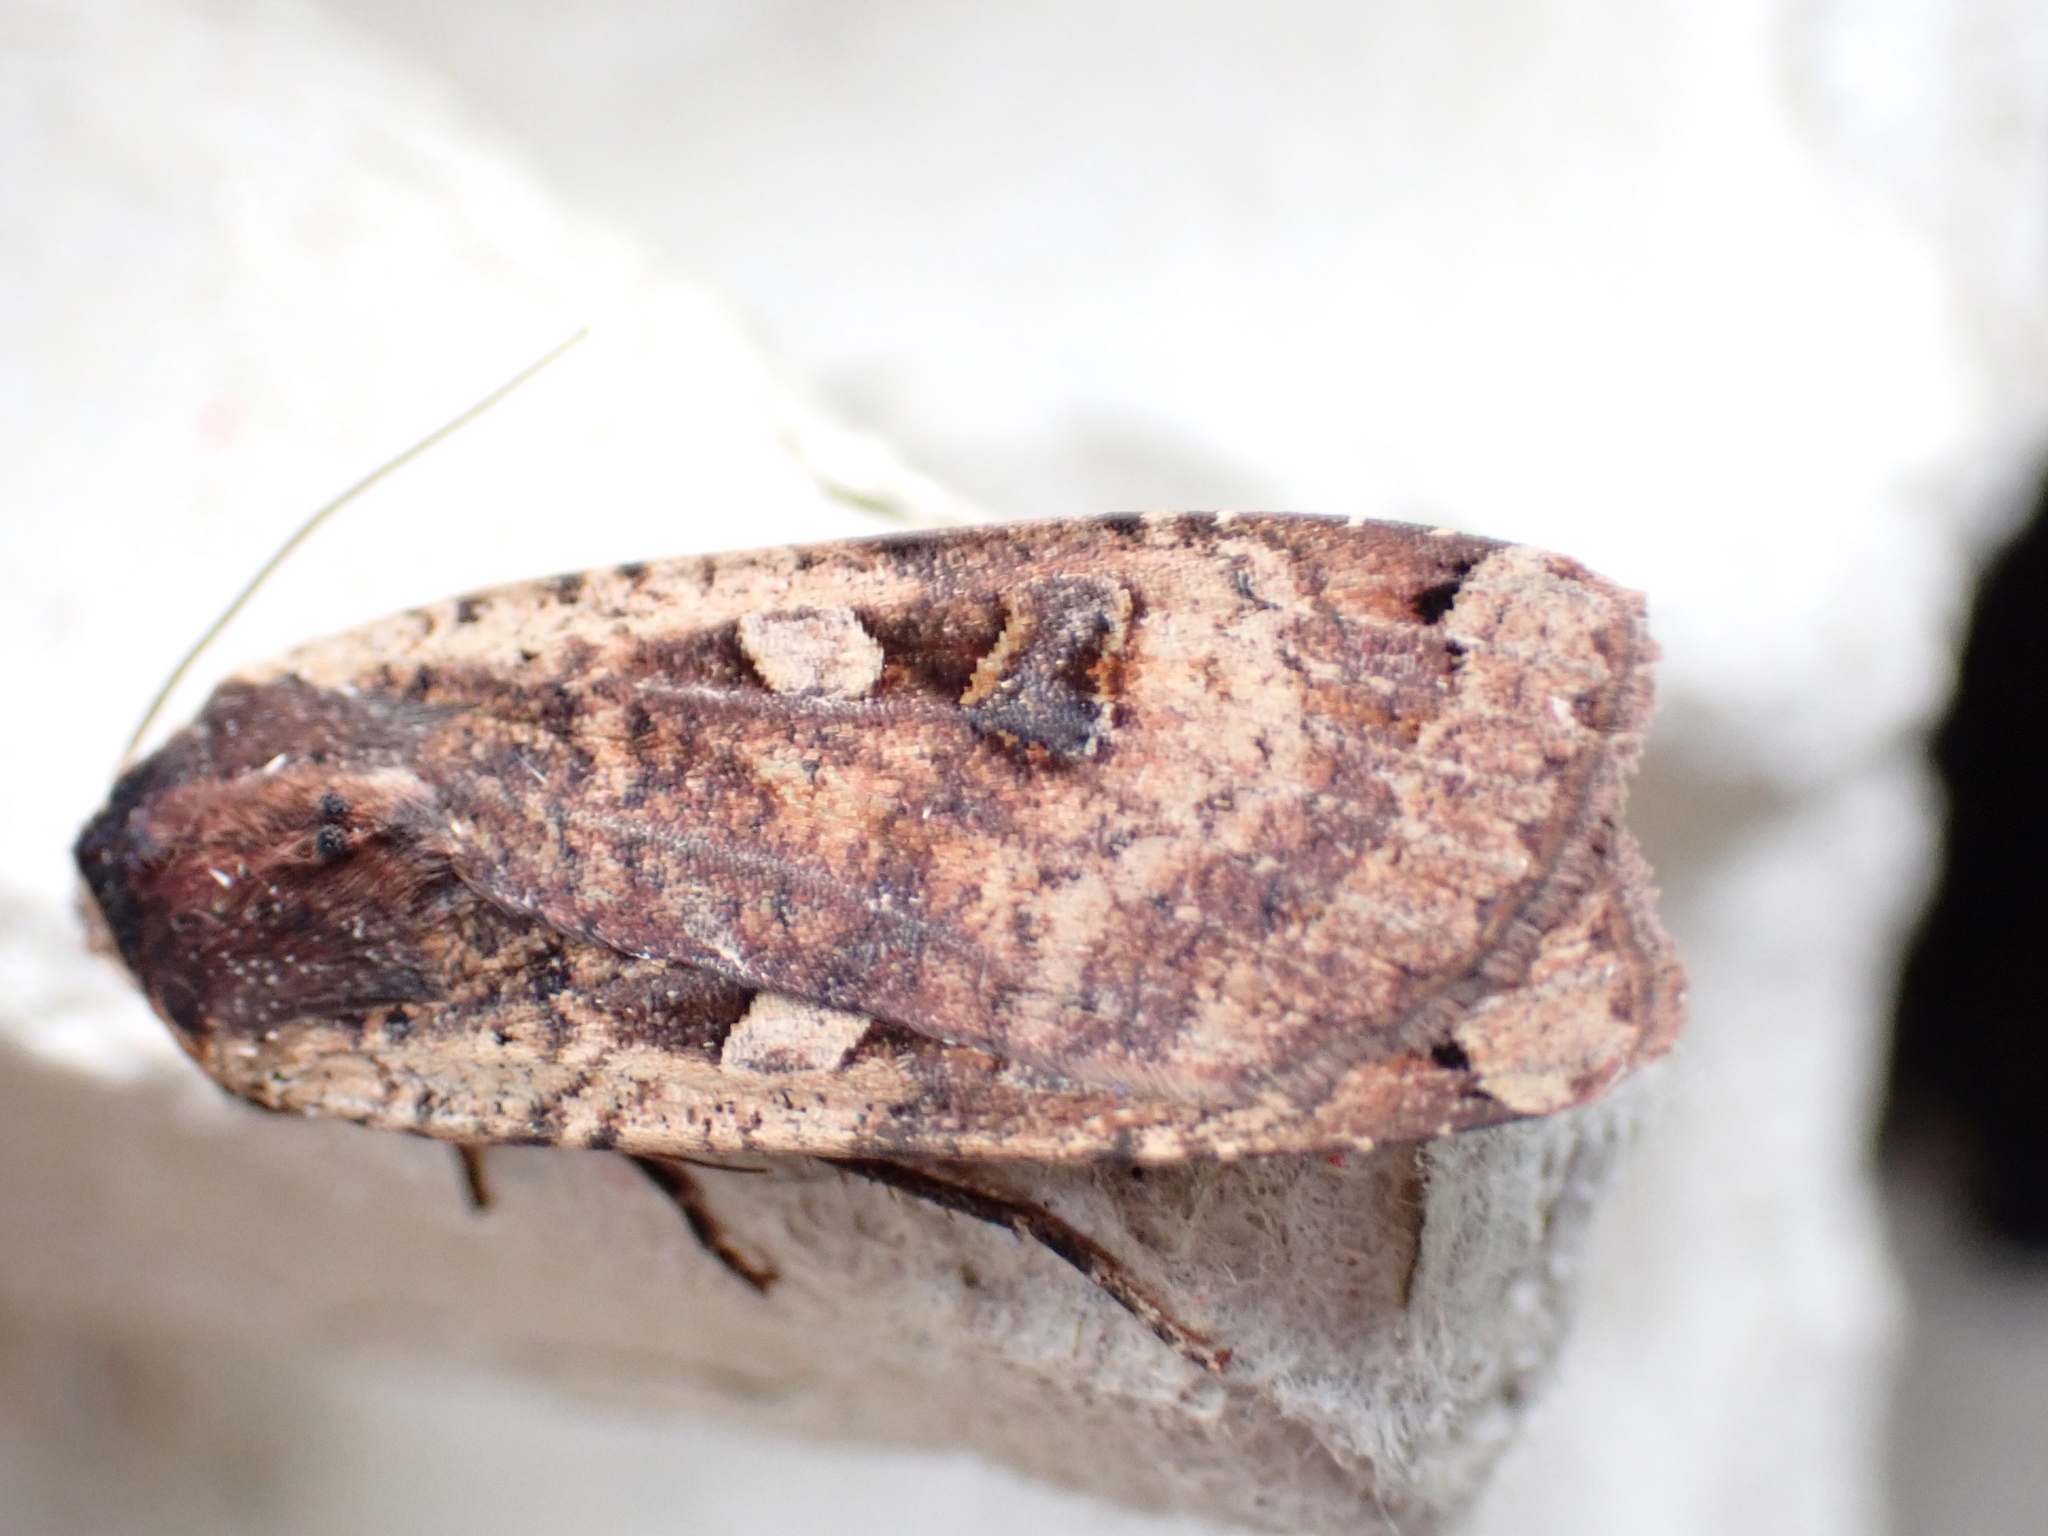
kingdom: Animalia
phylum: Arthropoda
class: Insecta
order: Lepidoptera
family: Noctuidae
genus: Noctua
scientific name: Noctua pronuba
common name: Large yellow underwing
